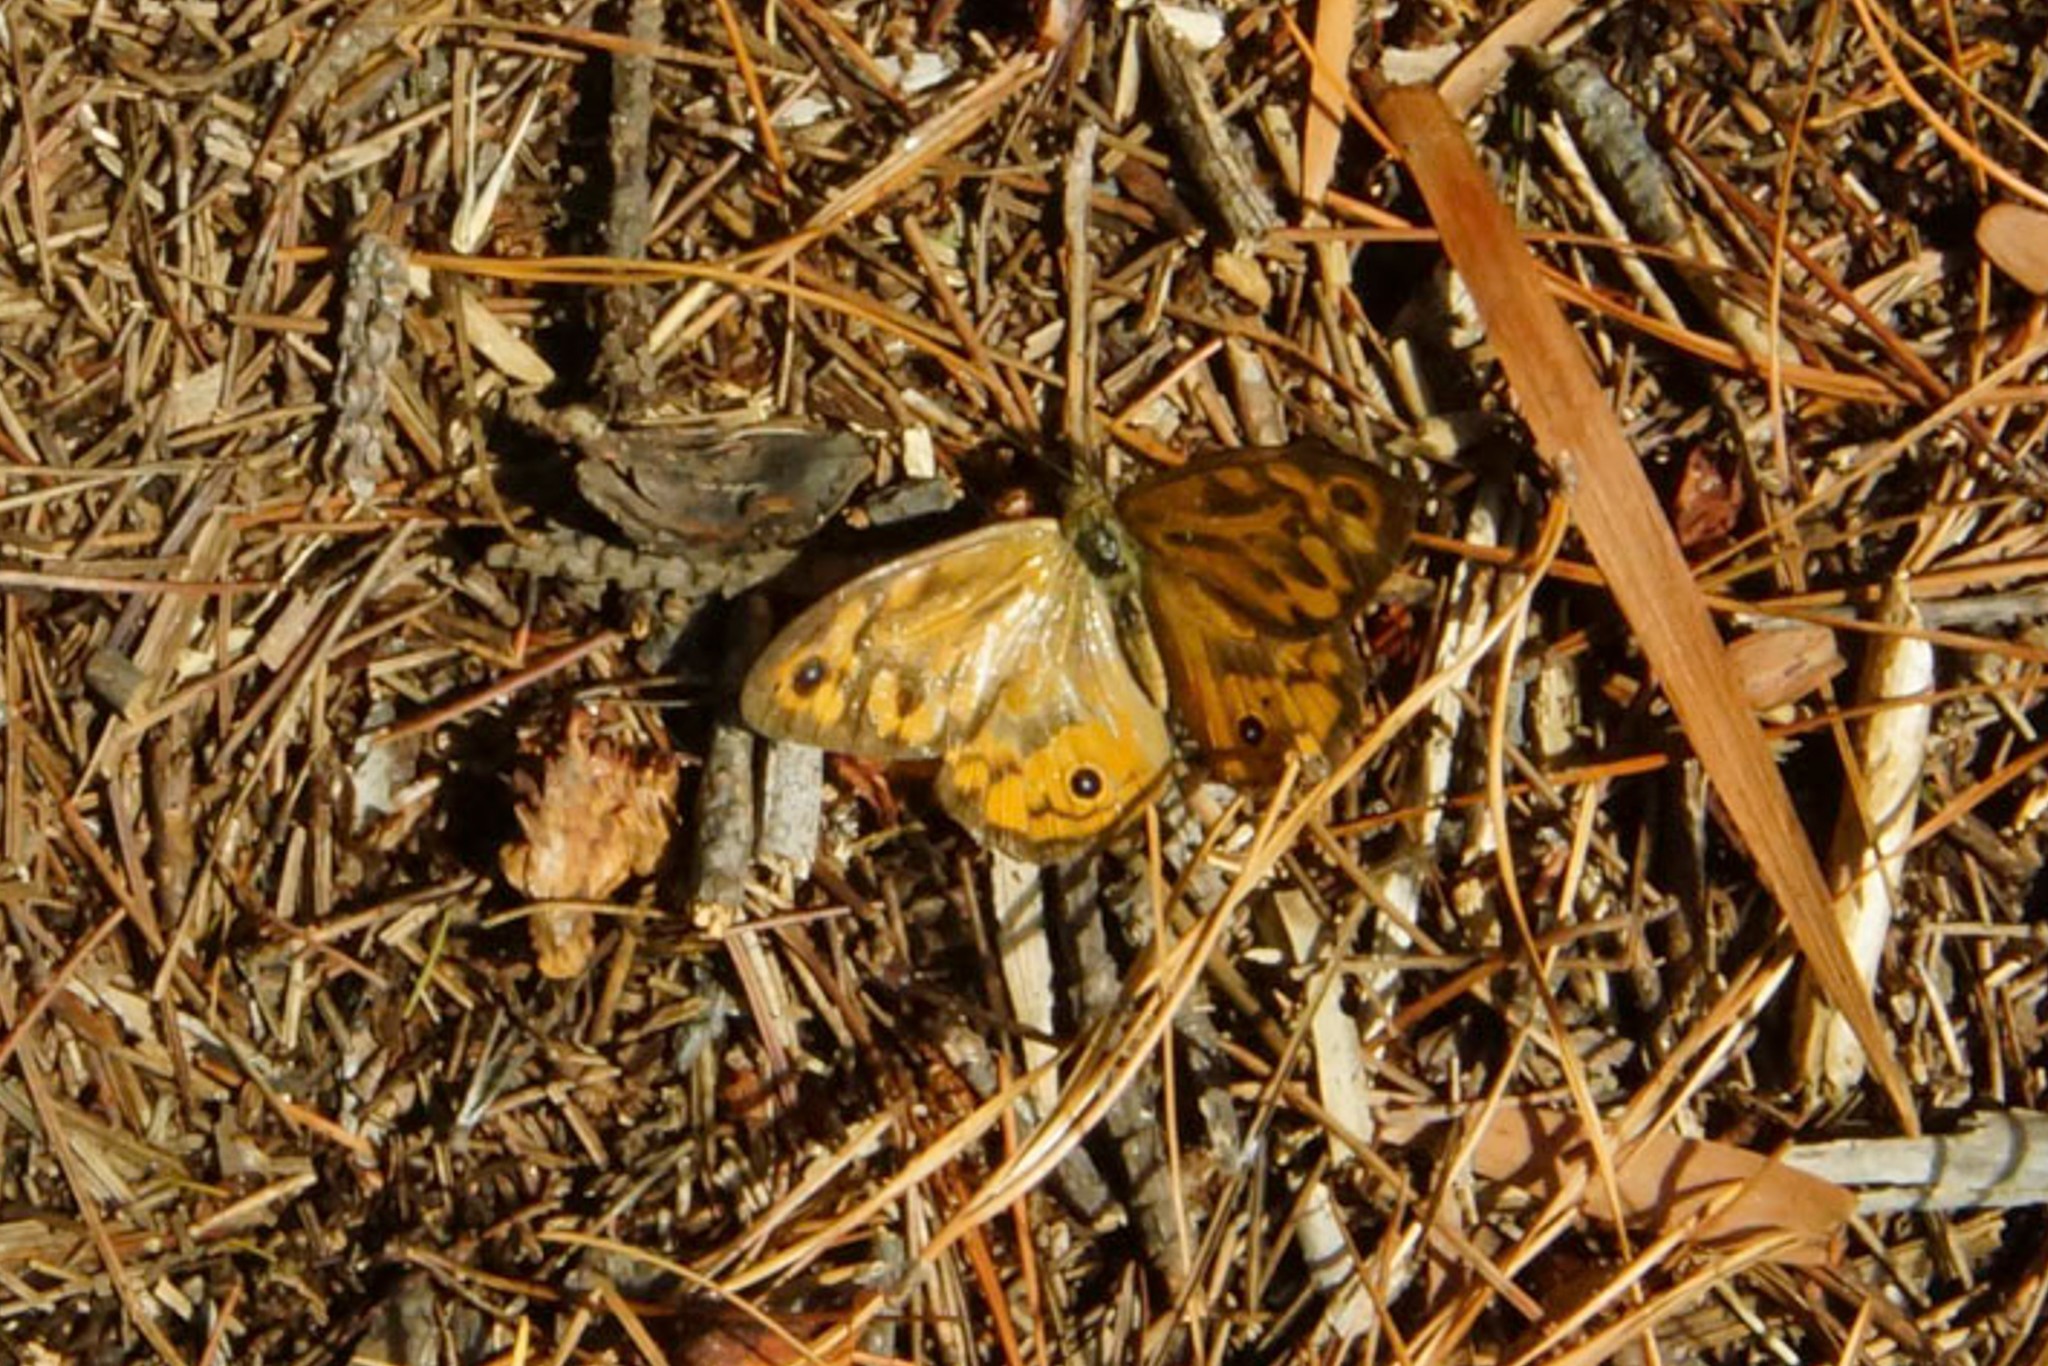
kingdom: Animalia
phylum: Arthropoda
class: Insecta
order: Lepidoptera
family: Nymphalidae
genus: Heteronympha
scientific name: Heteronympha merope
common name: Common brown
